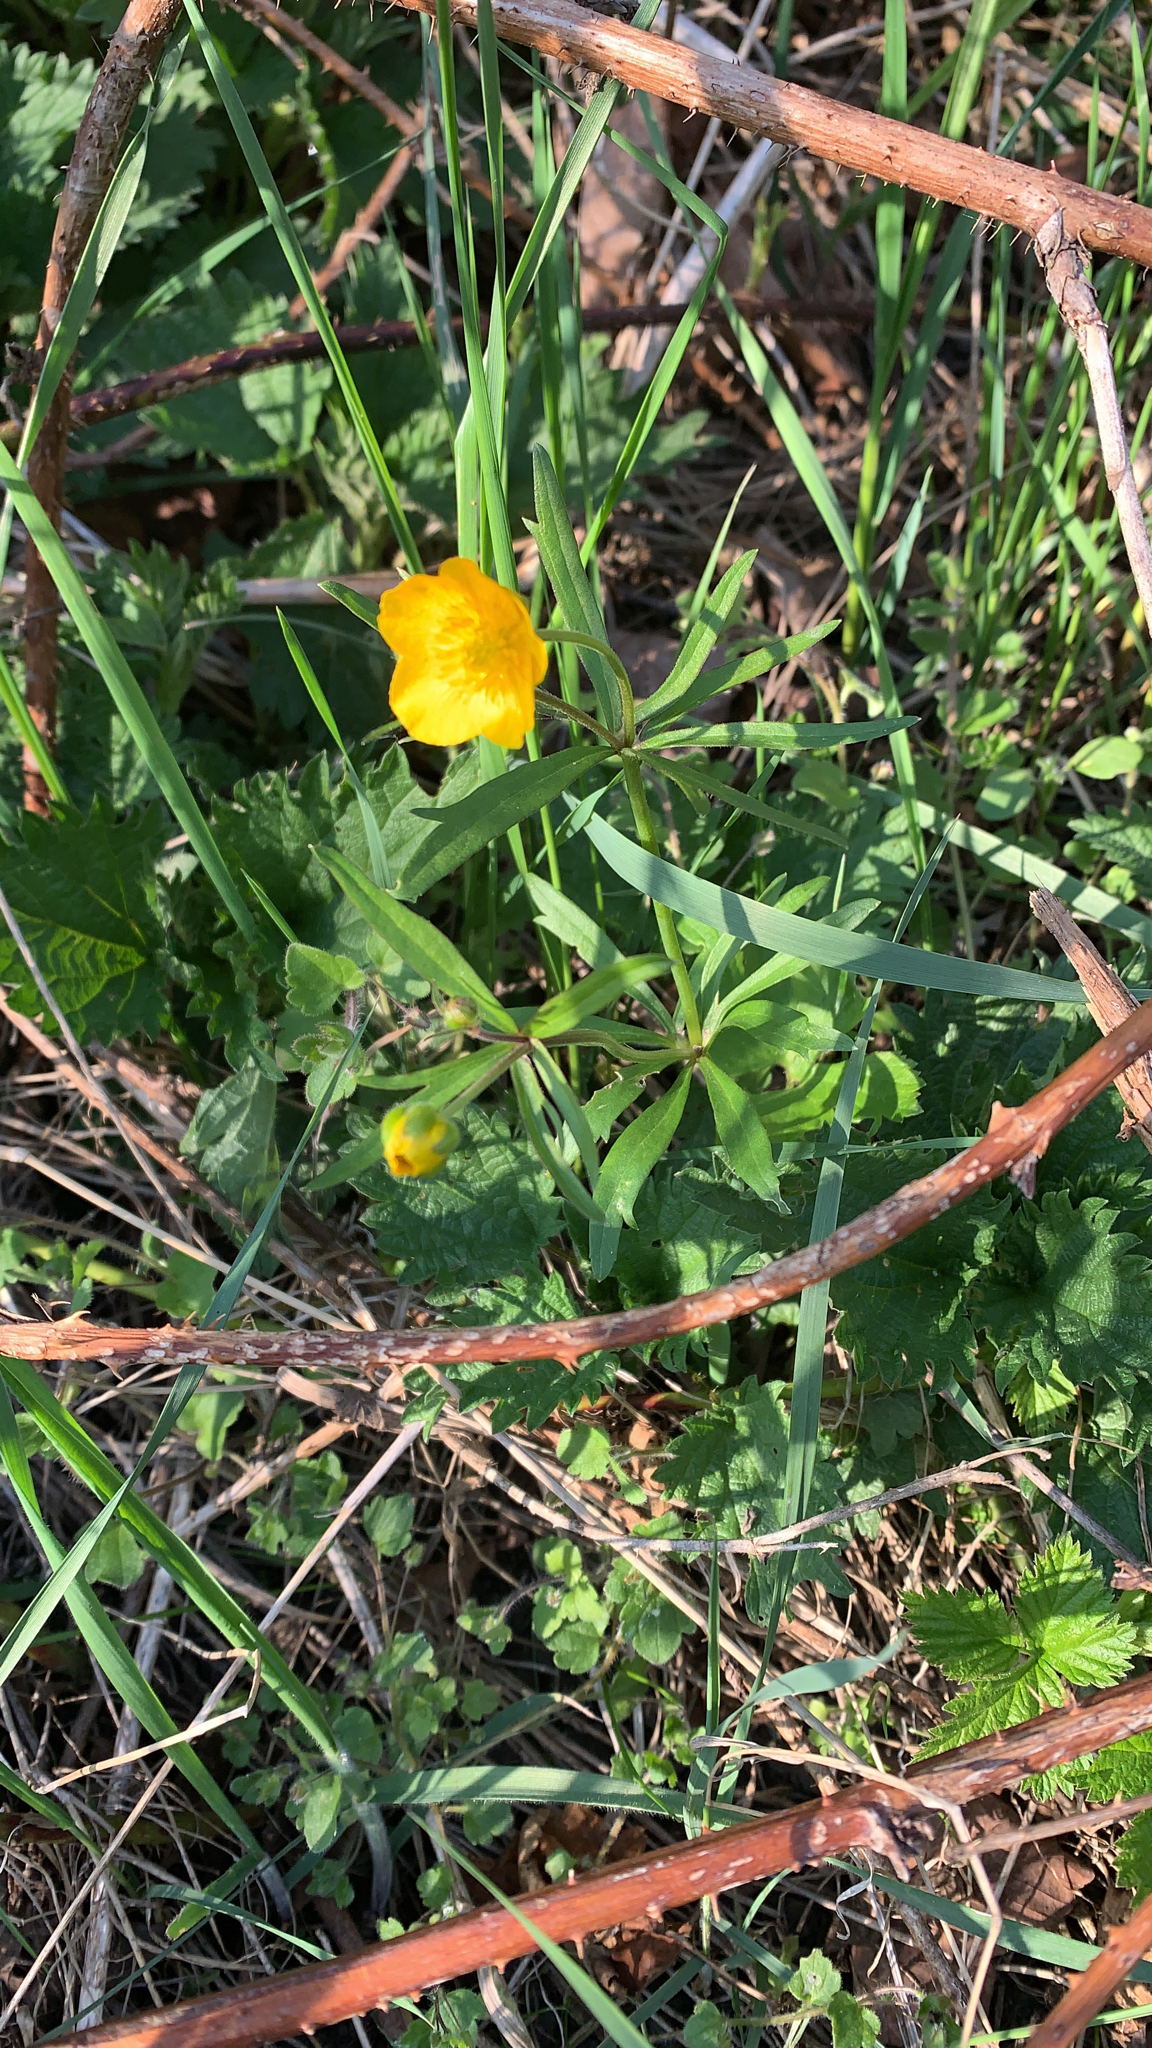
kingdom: Plantae
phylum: Tracheophyta
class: Magnoliopsida
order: Ranunculales
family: Ranunculaceae
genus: Ranunculus
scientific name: Ranunculus auricomus
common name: Goldilocks buttercup
